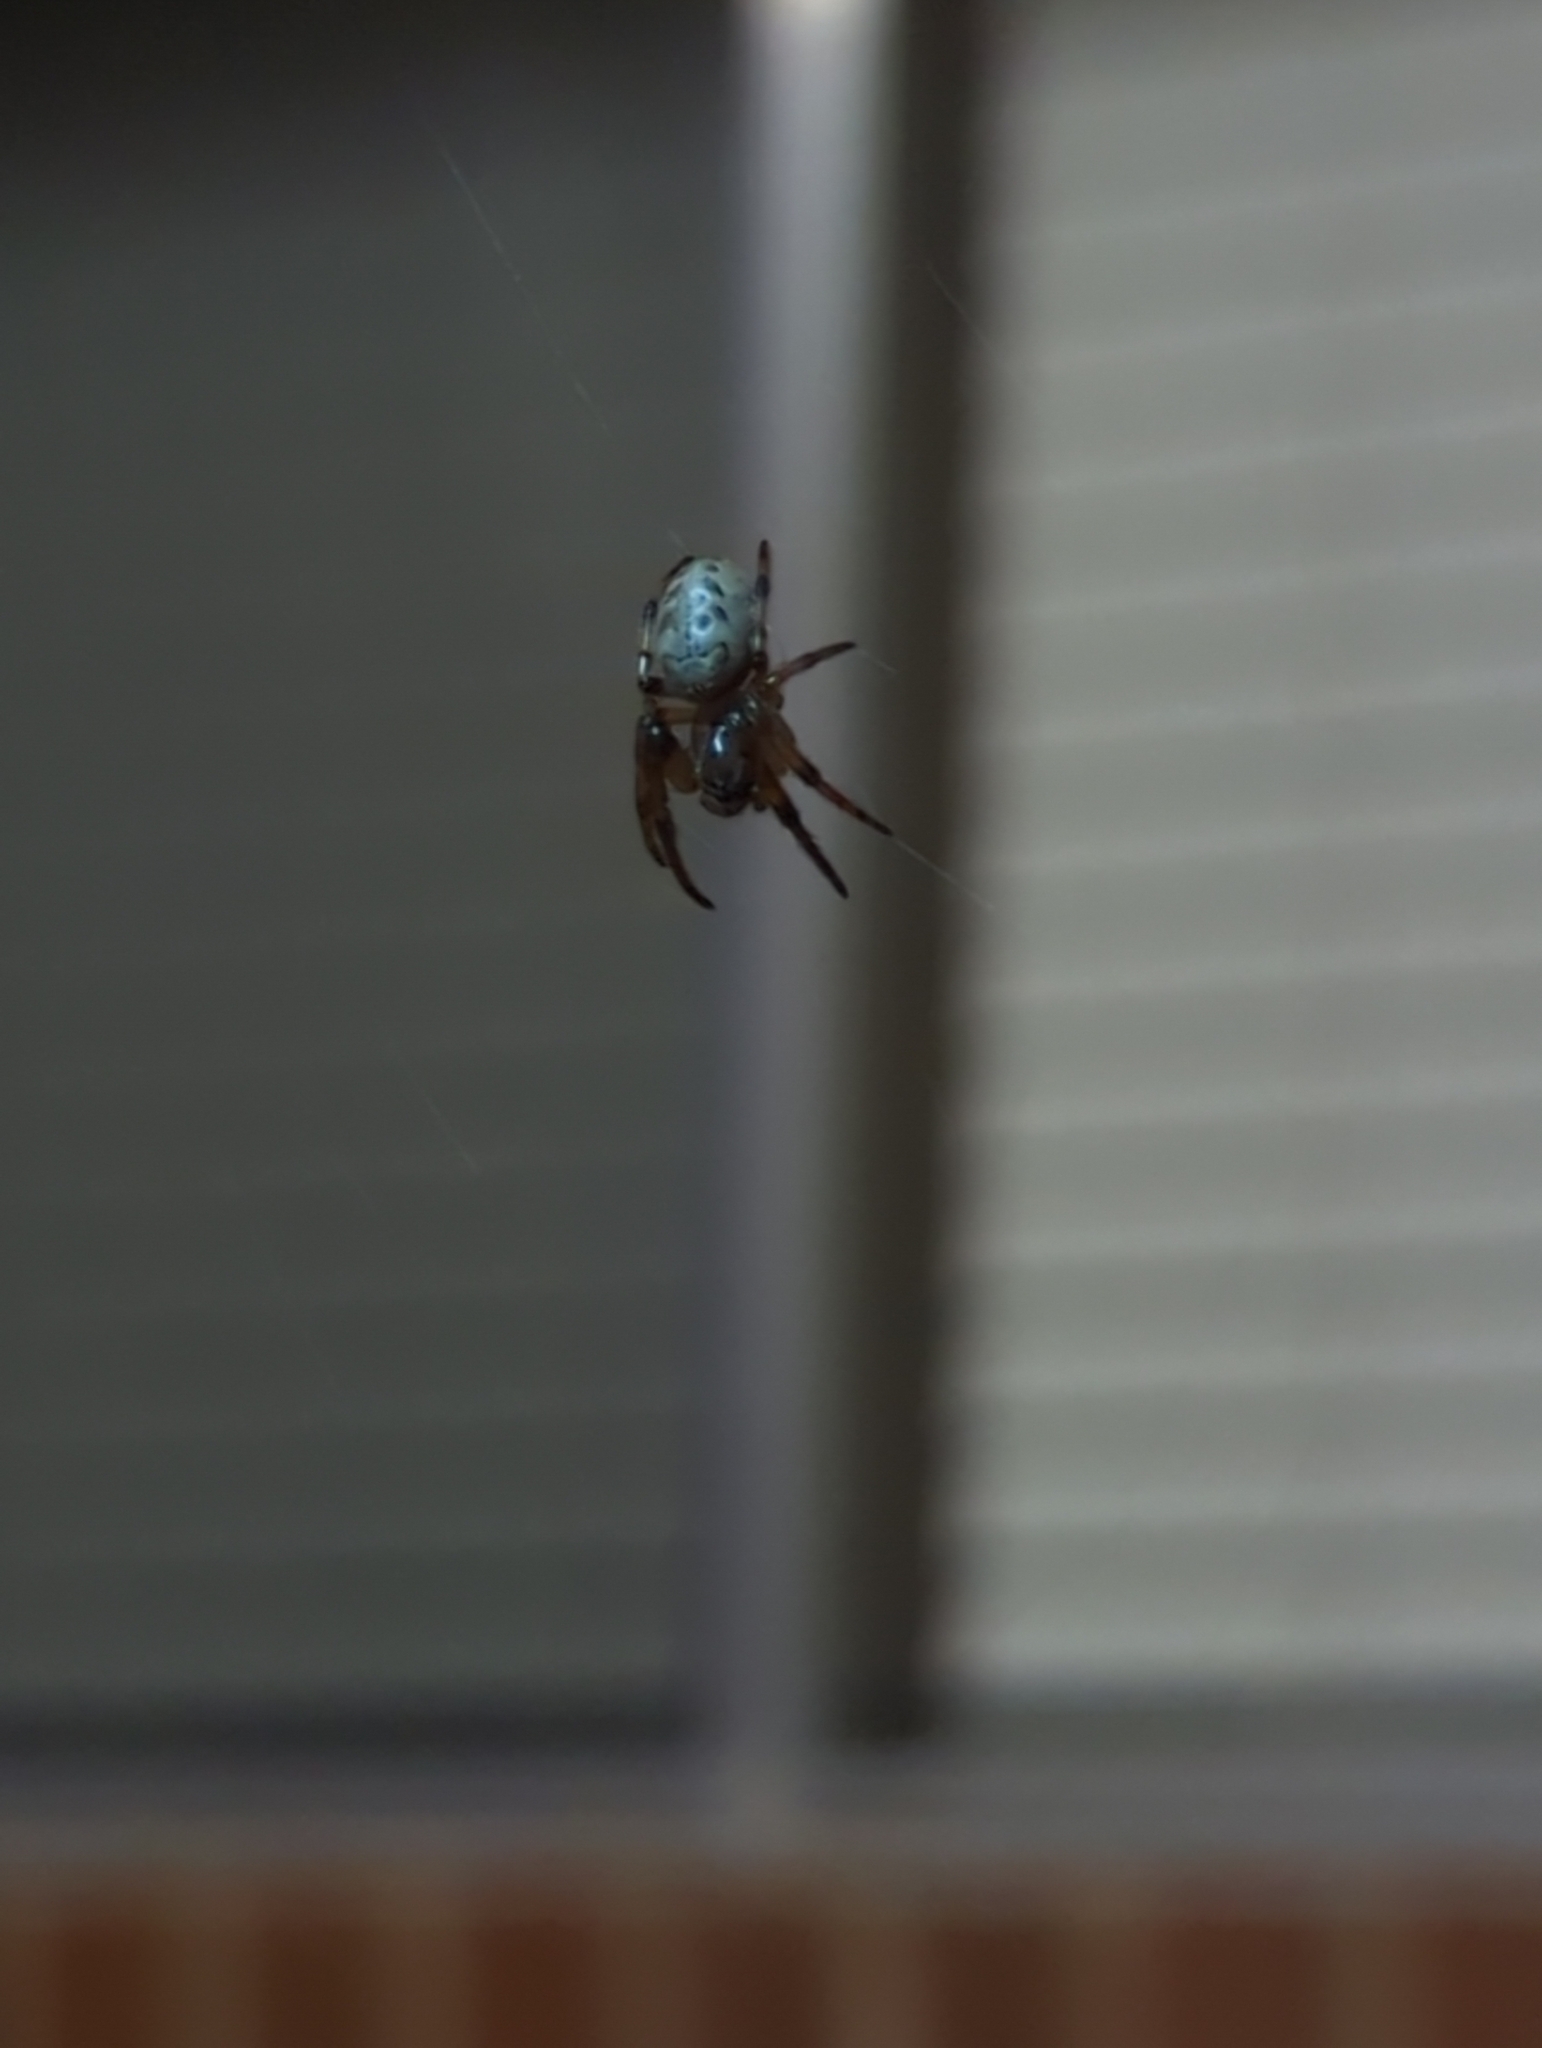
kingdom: Animalia
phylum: Arthropoda
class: Arachnida
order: Araneae
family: Araneidae
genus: Larinioides
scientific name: Larinioides cornutus
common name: Furrow orbweaver
